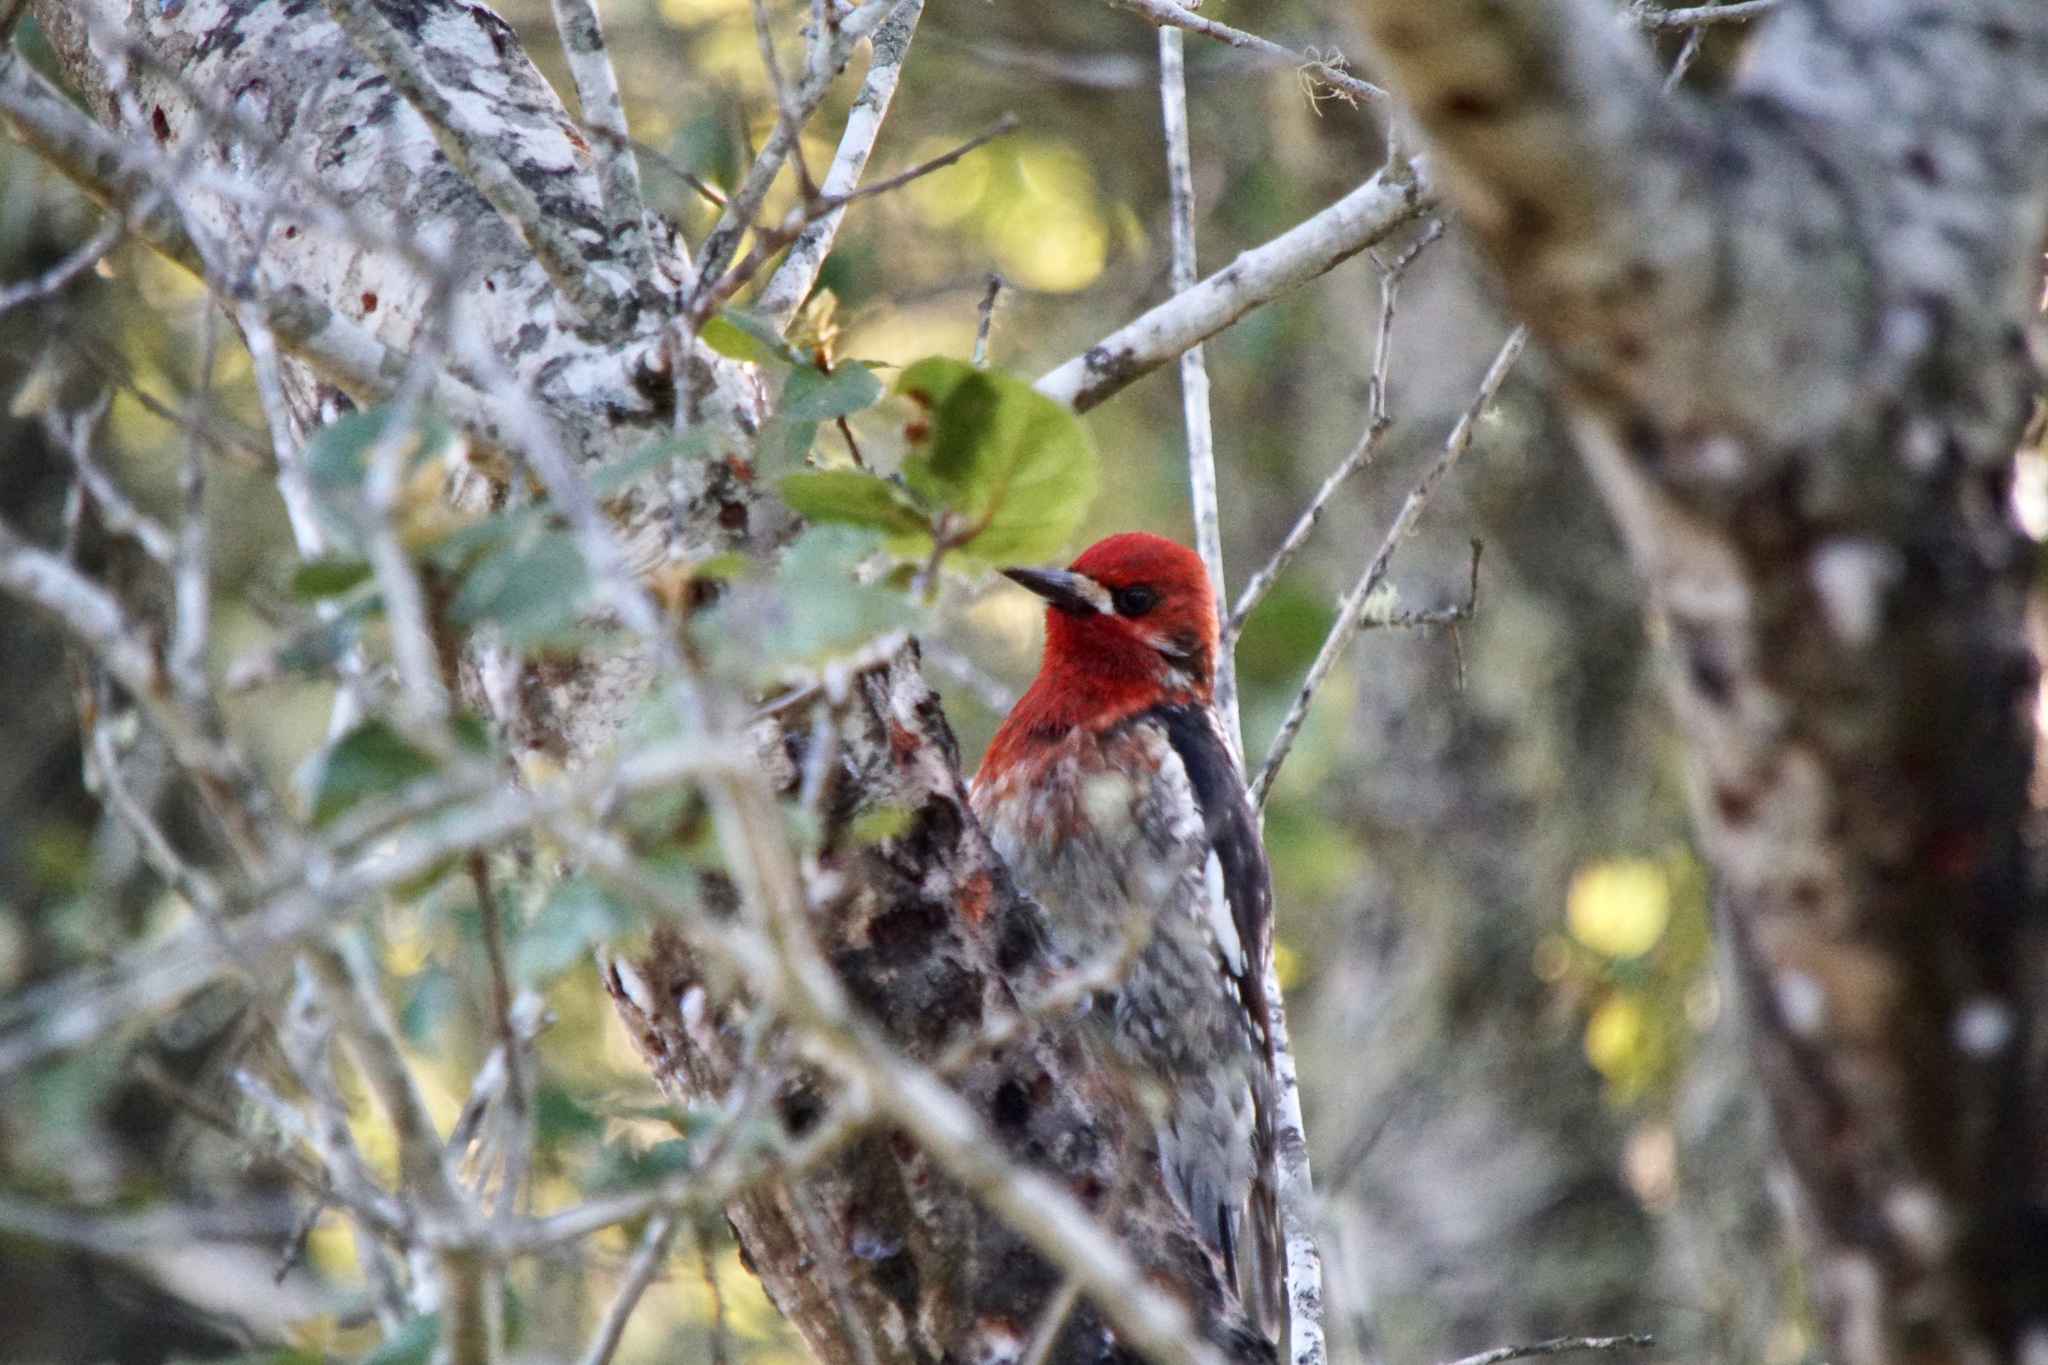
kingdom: Animalia
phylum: Chordata
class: Aves
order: Piciformes
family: Picidae
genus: Sphyrapicus
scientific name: Sphyrapicus ruber
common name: Red-breasted sapsucker
